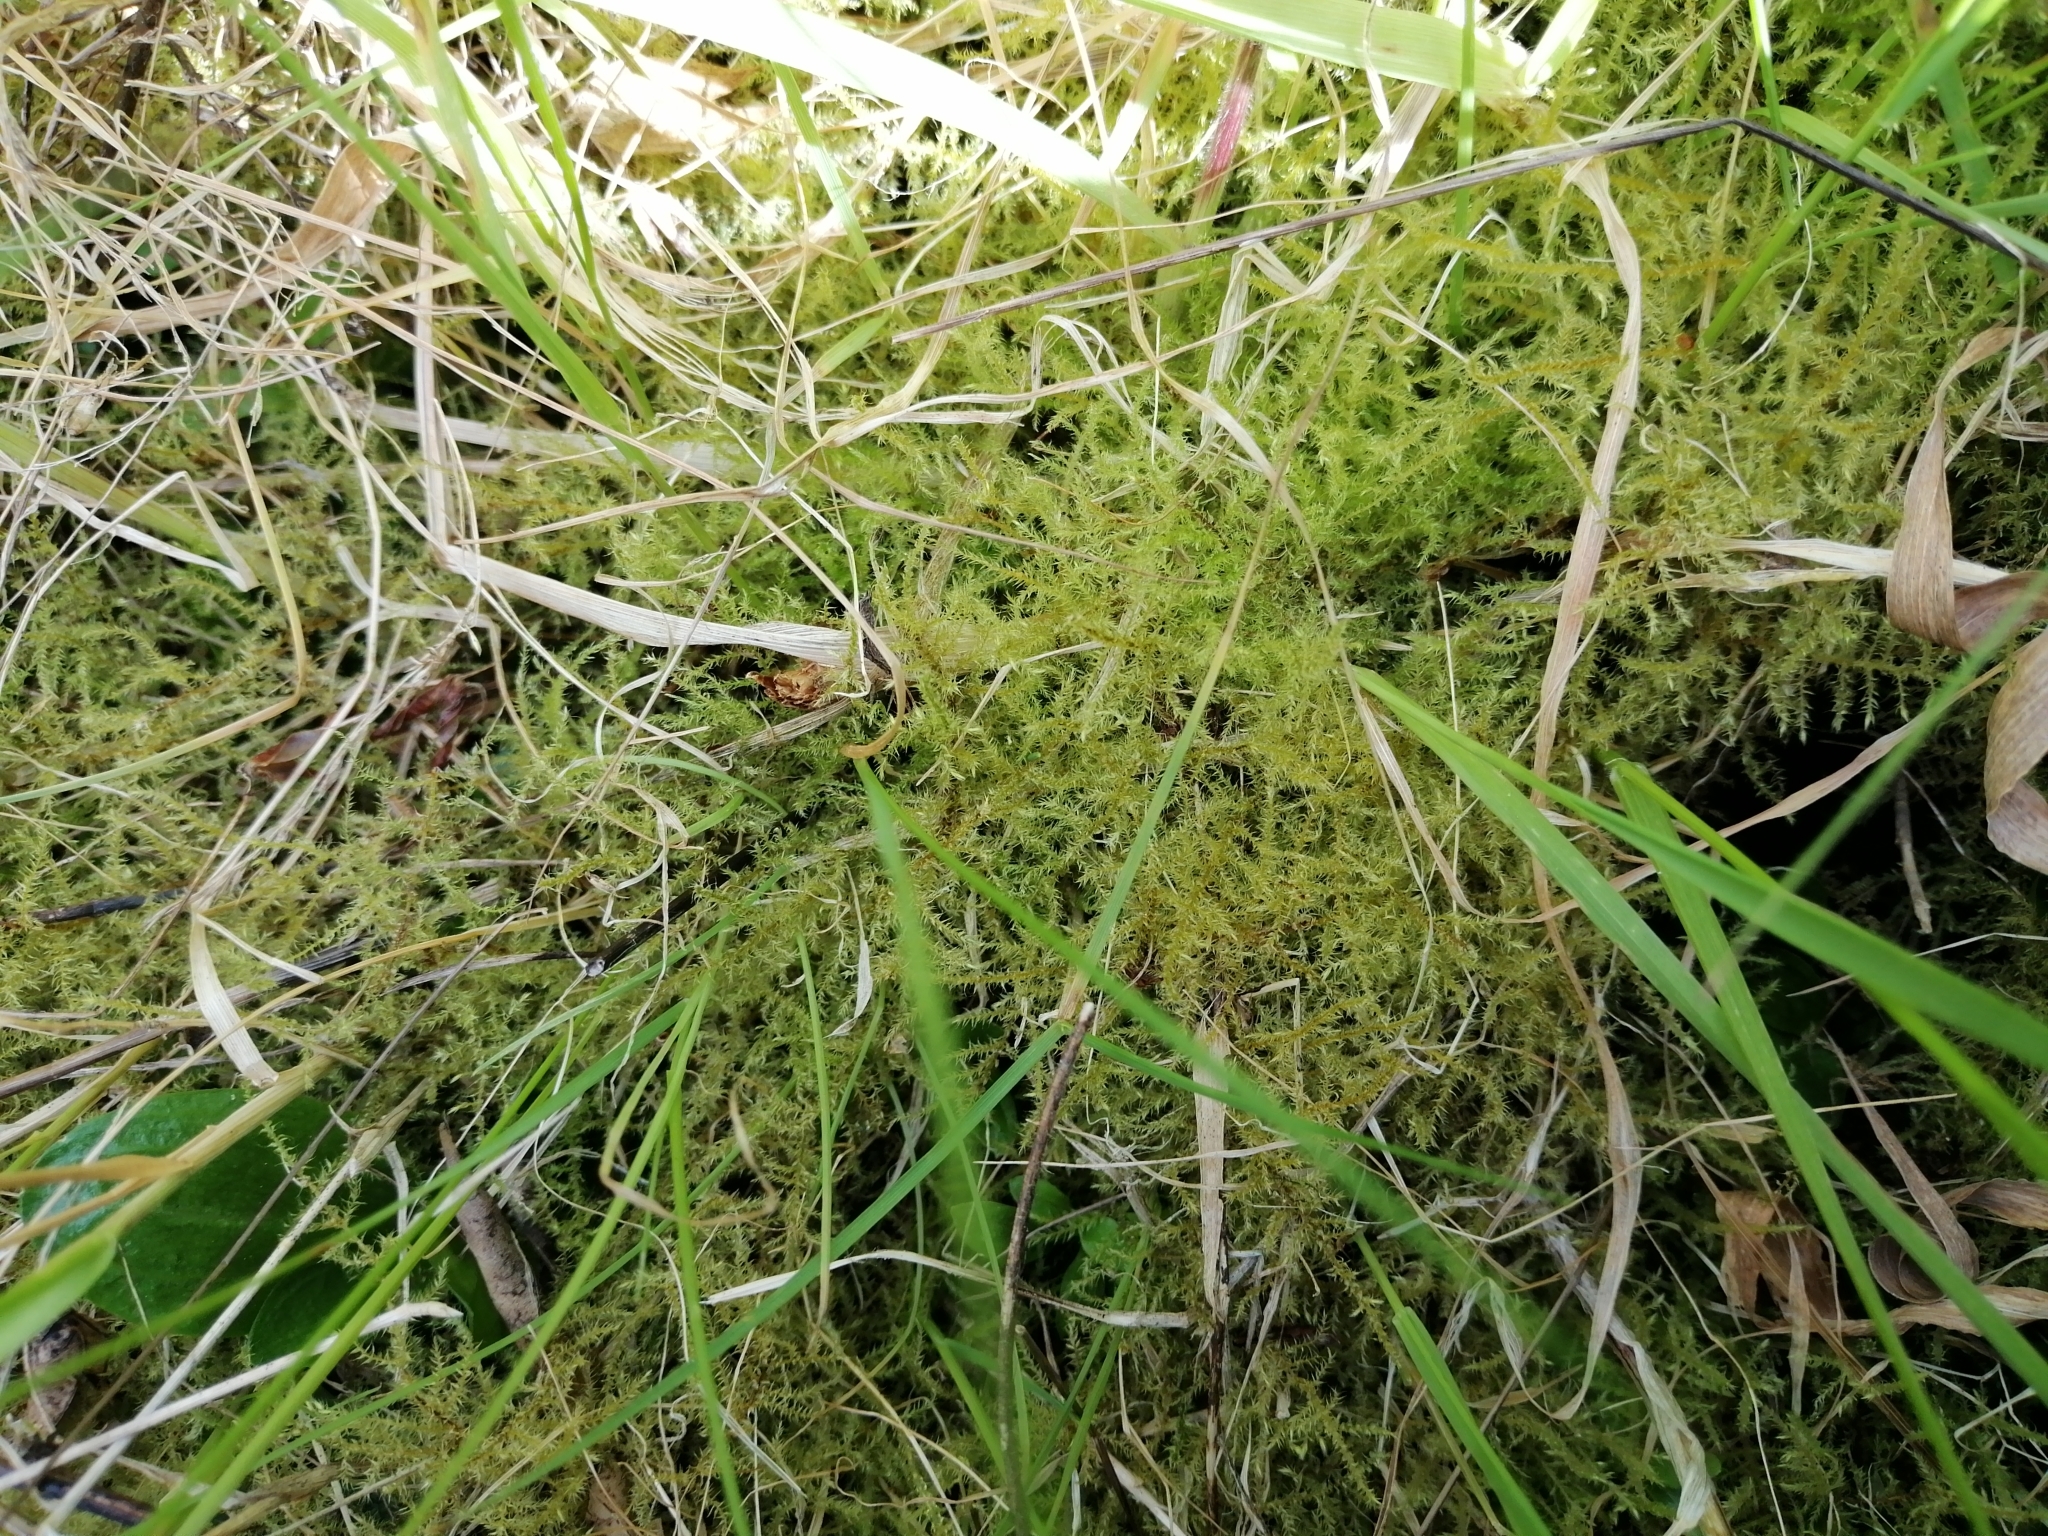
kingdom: Plantae
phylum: Bryophyta
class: Bryopsida
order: Hypnales
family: Brachytheciaceae
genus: Kindbergia
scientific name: Kindbergia praelonga
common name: Slender beaked moss
